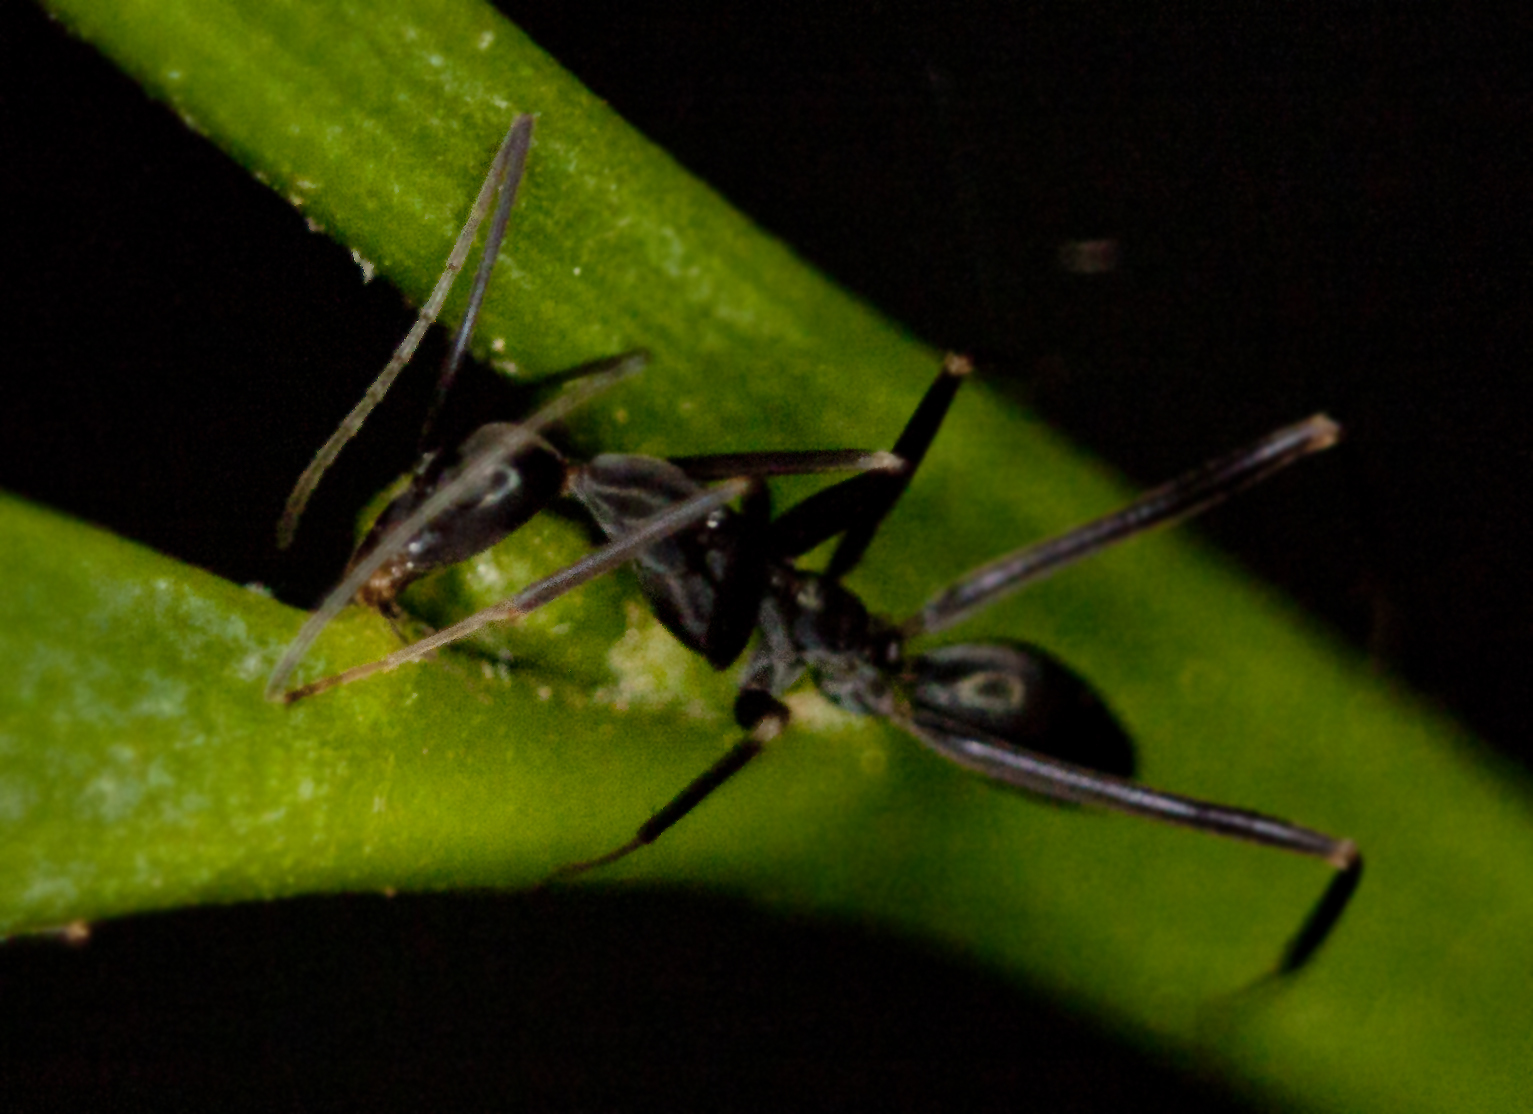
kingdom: Animalia
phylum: Arthropoda
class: Insecta
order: Hymenoptera
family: Formicidae
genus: Leptomyrmex
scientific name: Leptomyrmex mjobergi
